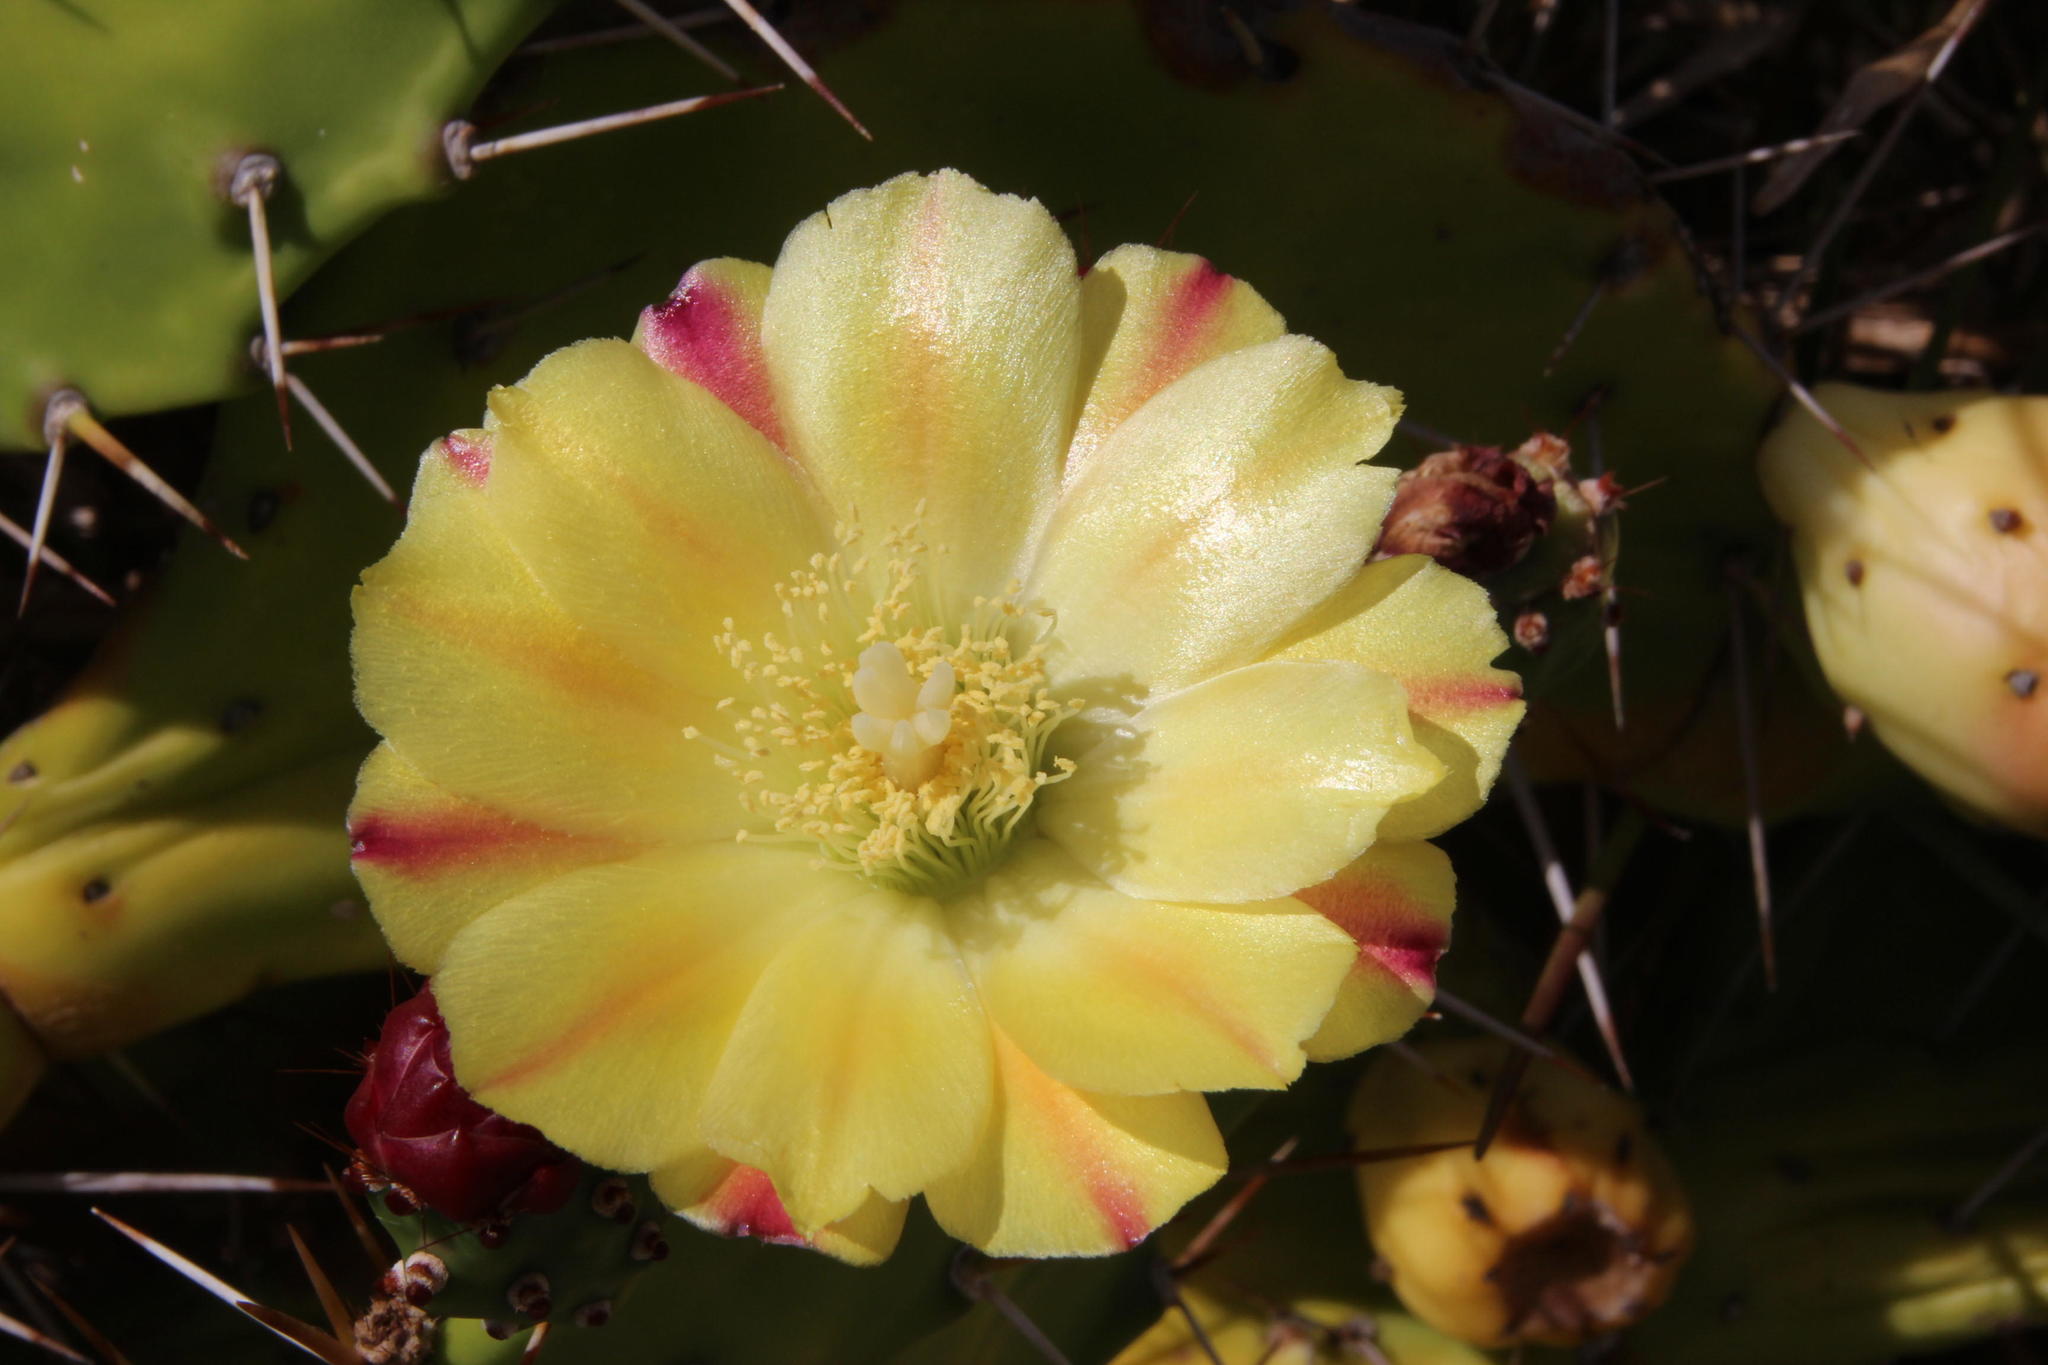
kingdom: Plantae
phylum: Tracheophyta
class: Magnoliopsida
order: Caryophyllales
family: Cactaceae
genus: Opuntia
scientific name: Opuntia monacantha
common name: Common pricklypear
